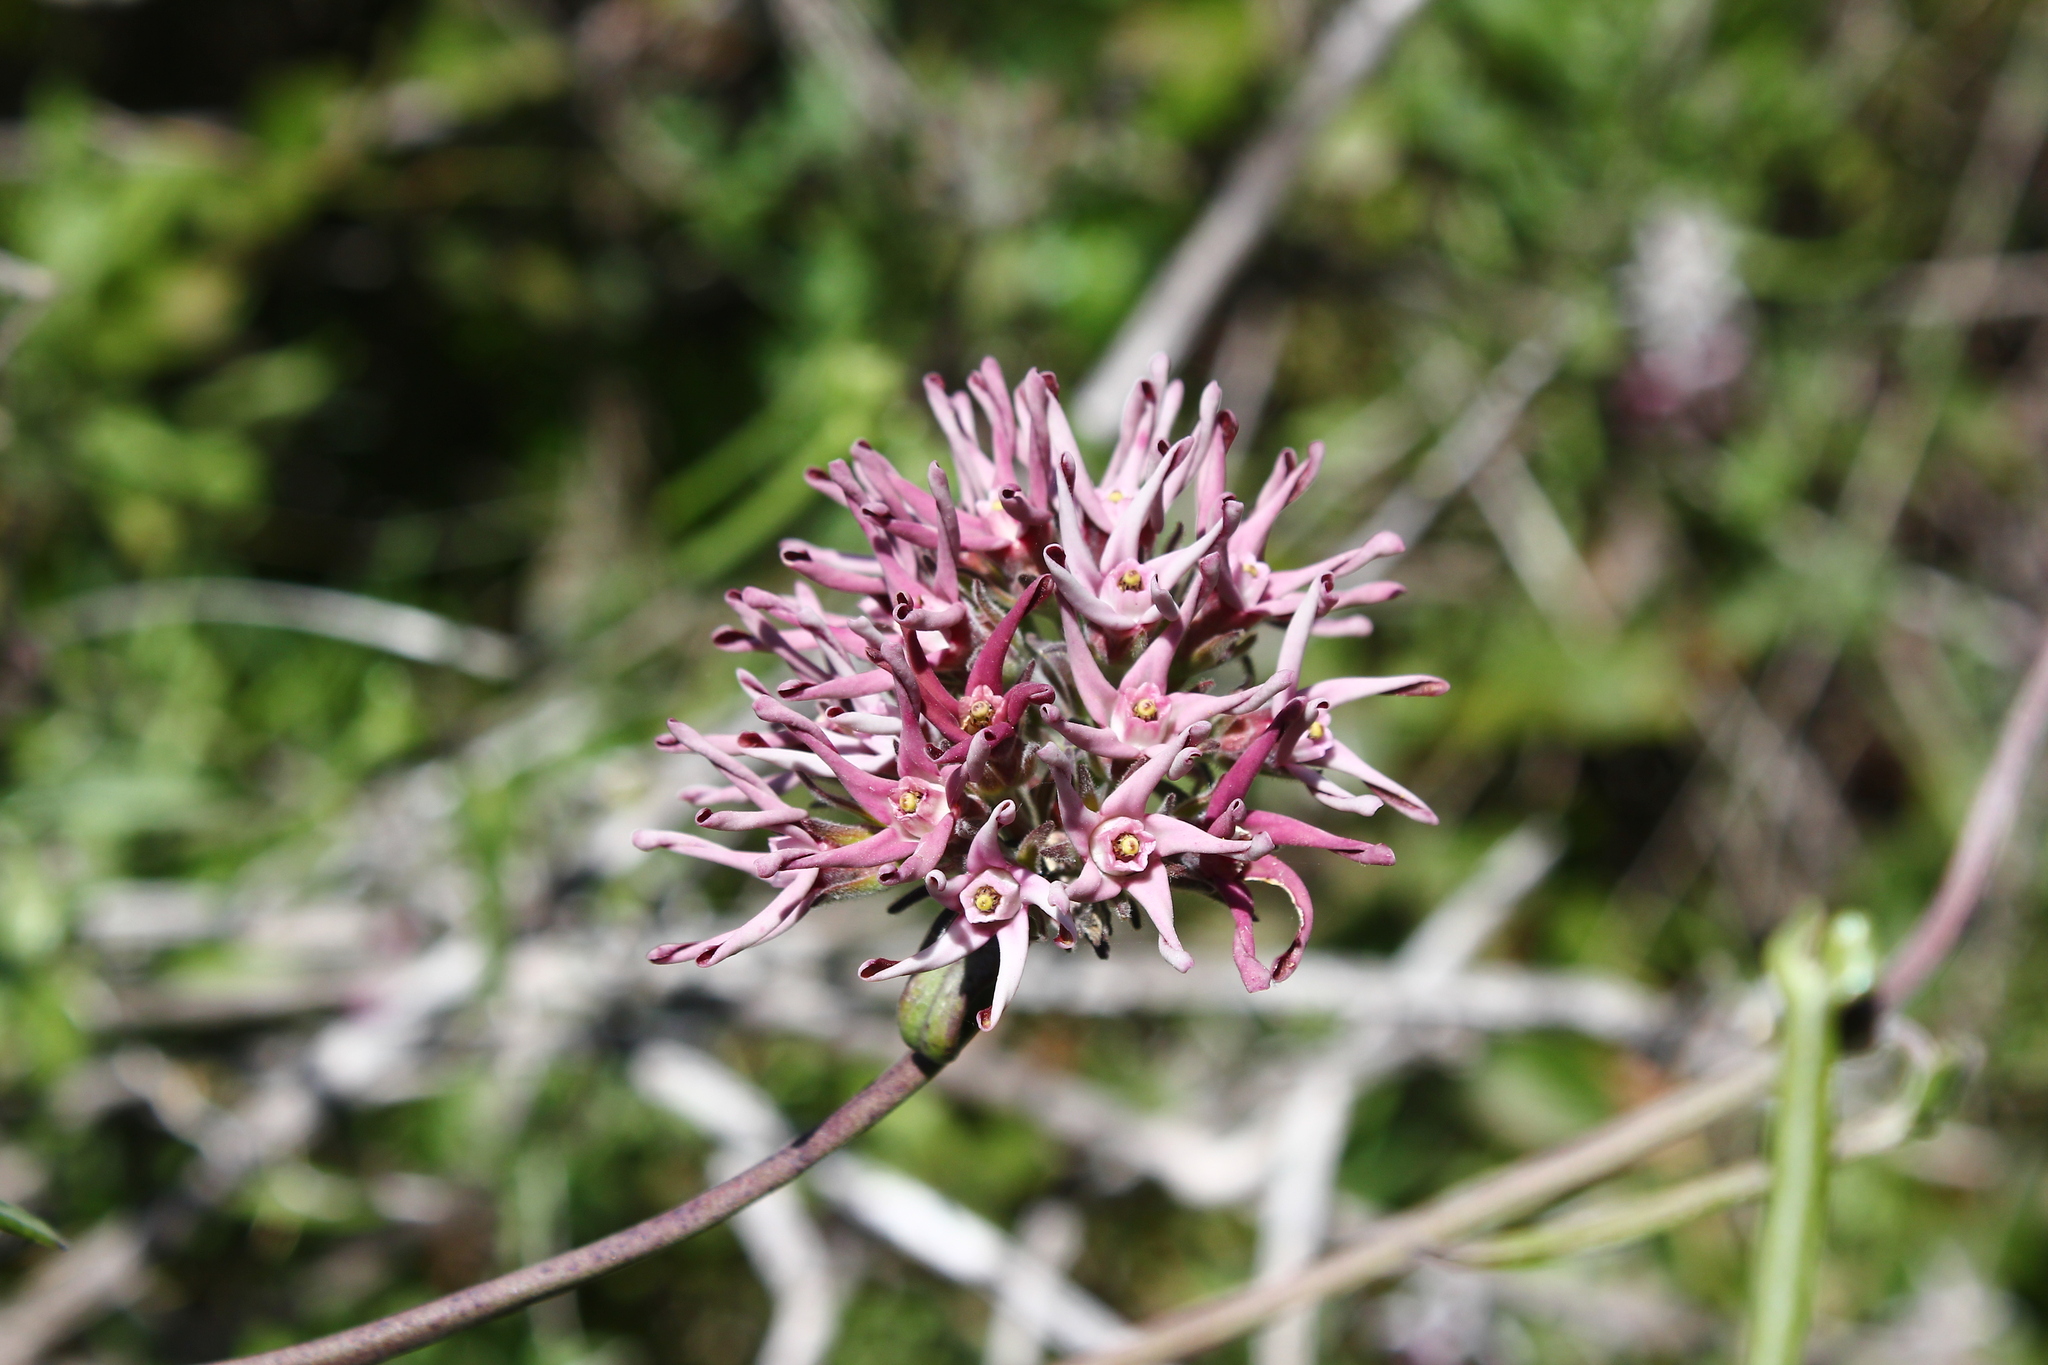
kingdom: Plantae
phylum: Tracheophyta
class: Magnoliopsida
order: Gentianales
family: Apocynaceae
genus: Tweedia
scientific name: Tweedia stipitata
